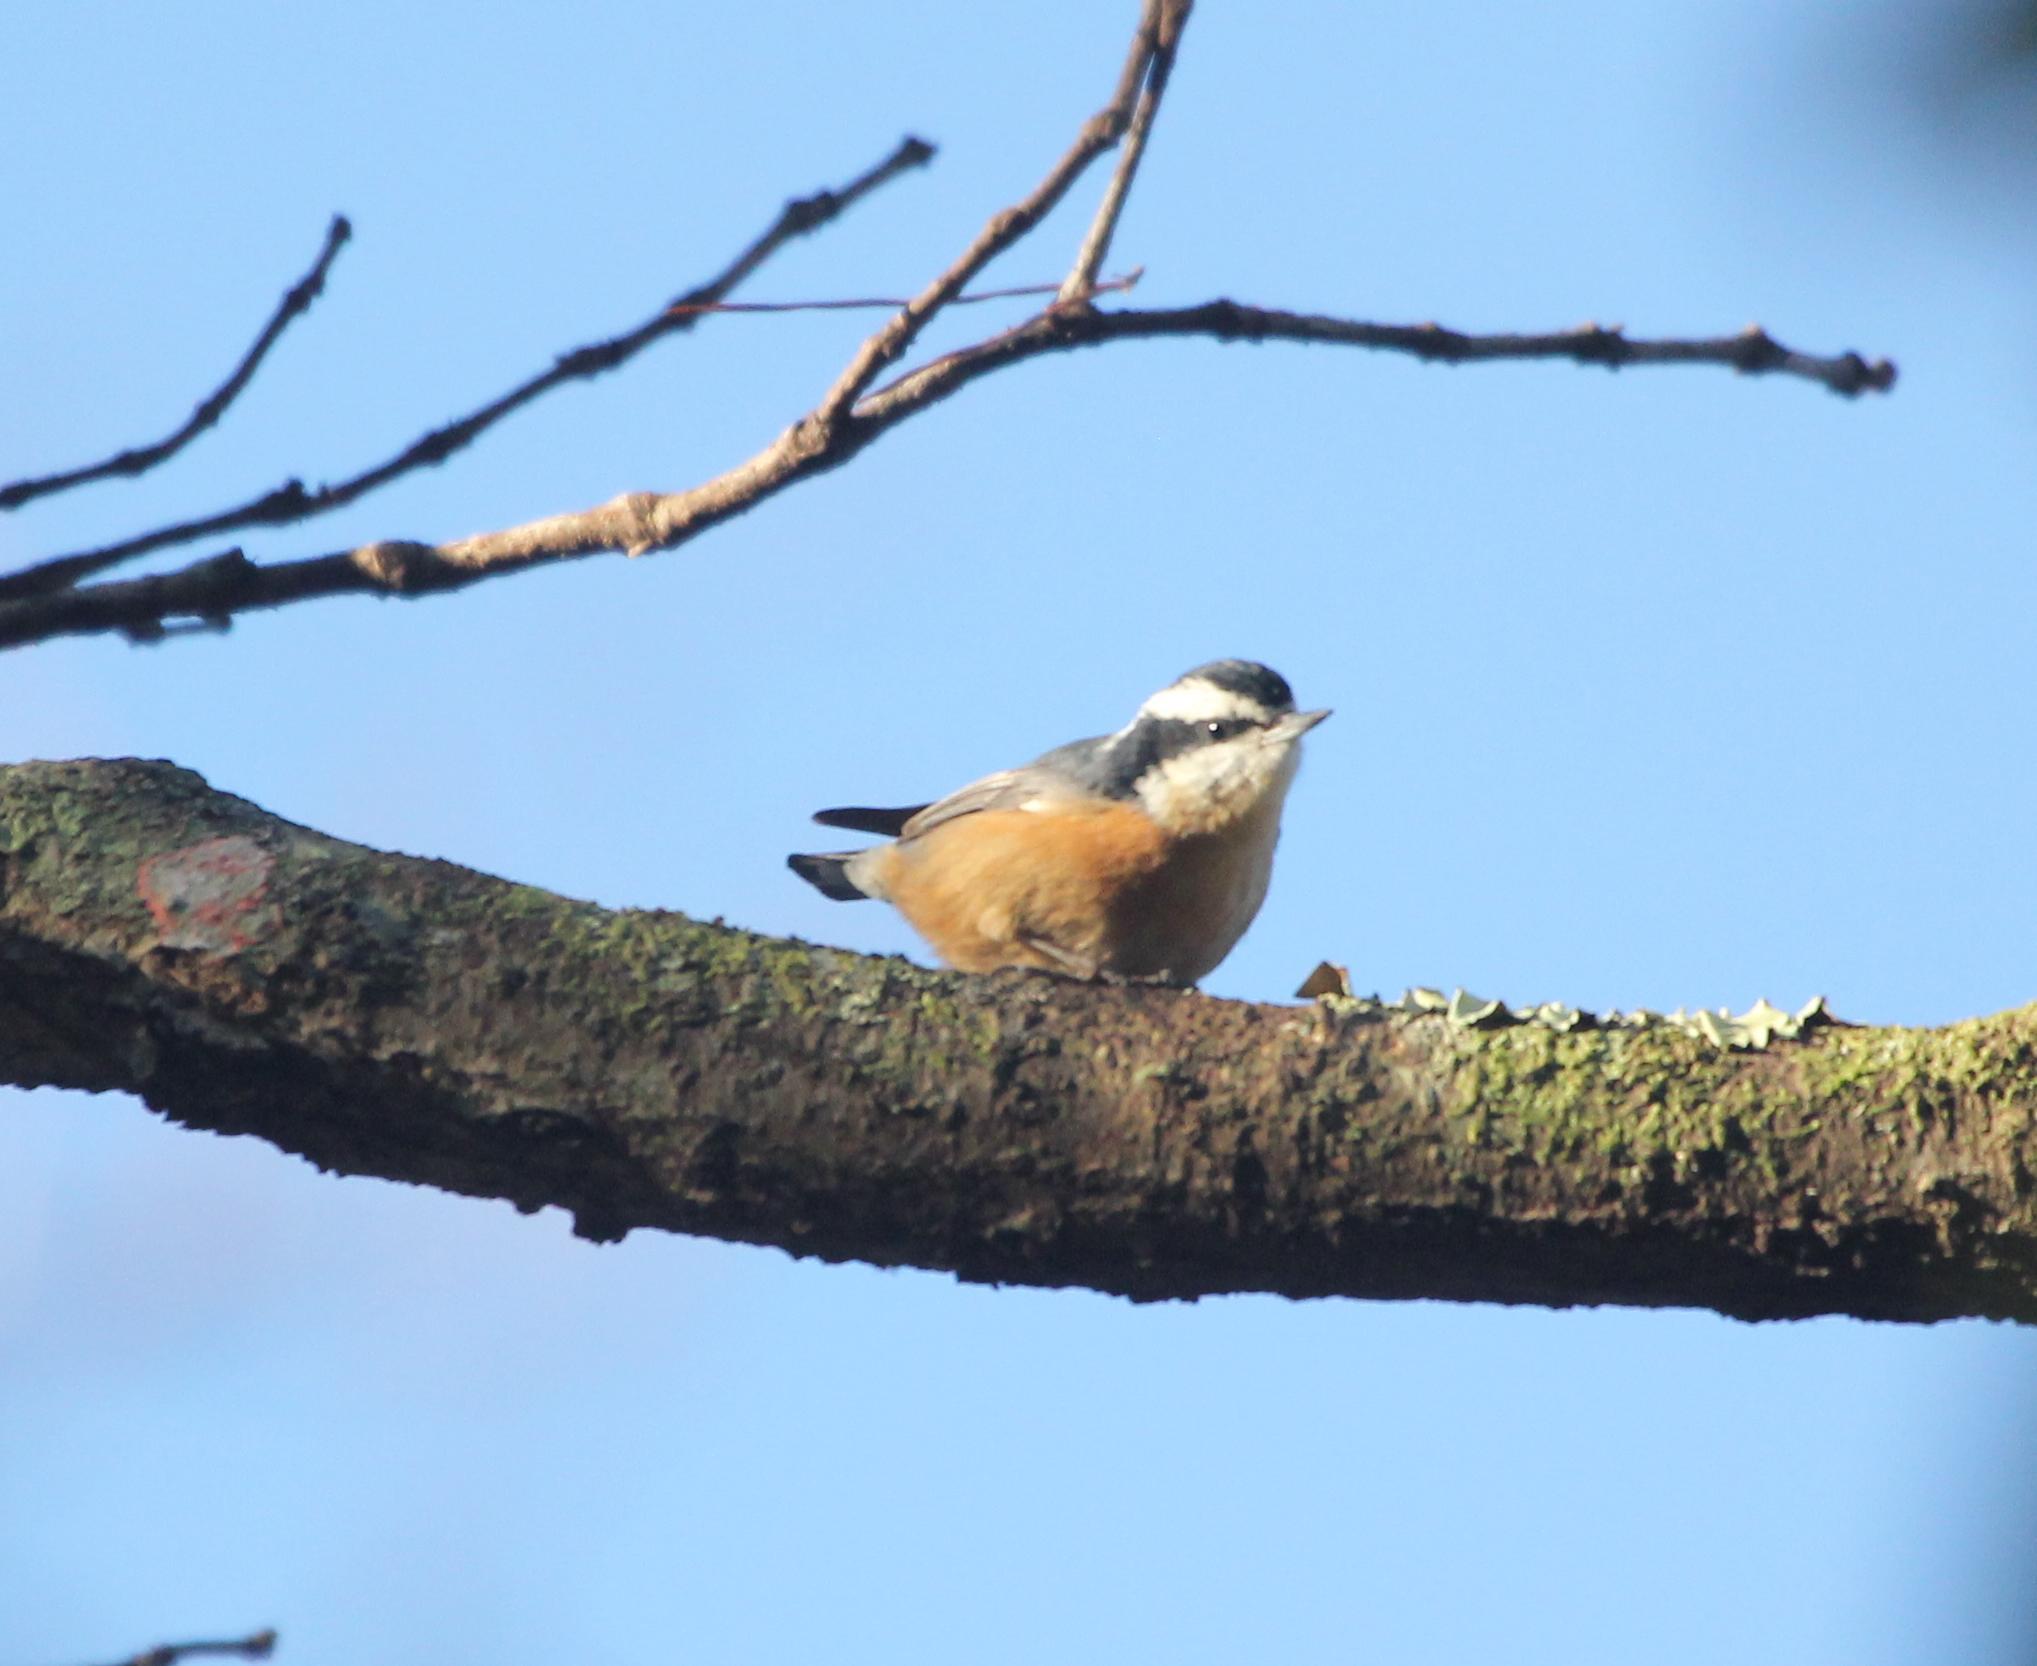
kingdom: Animalia
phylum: Chordata
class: Aves
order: Passeriformes
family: Sittidae
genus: Sitta
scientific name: Sitta canadensis
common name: Red-breasted nuthatch
